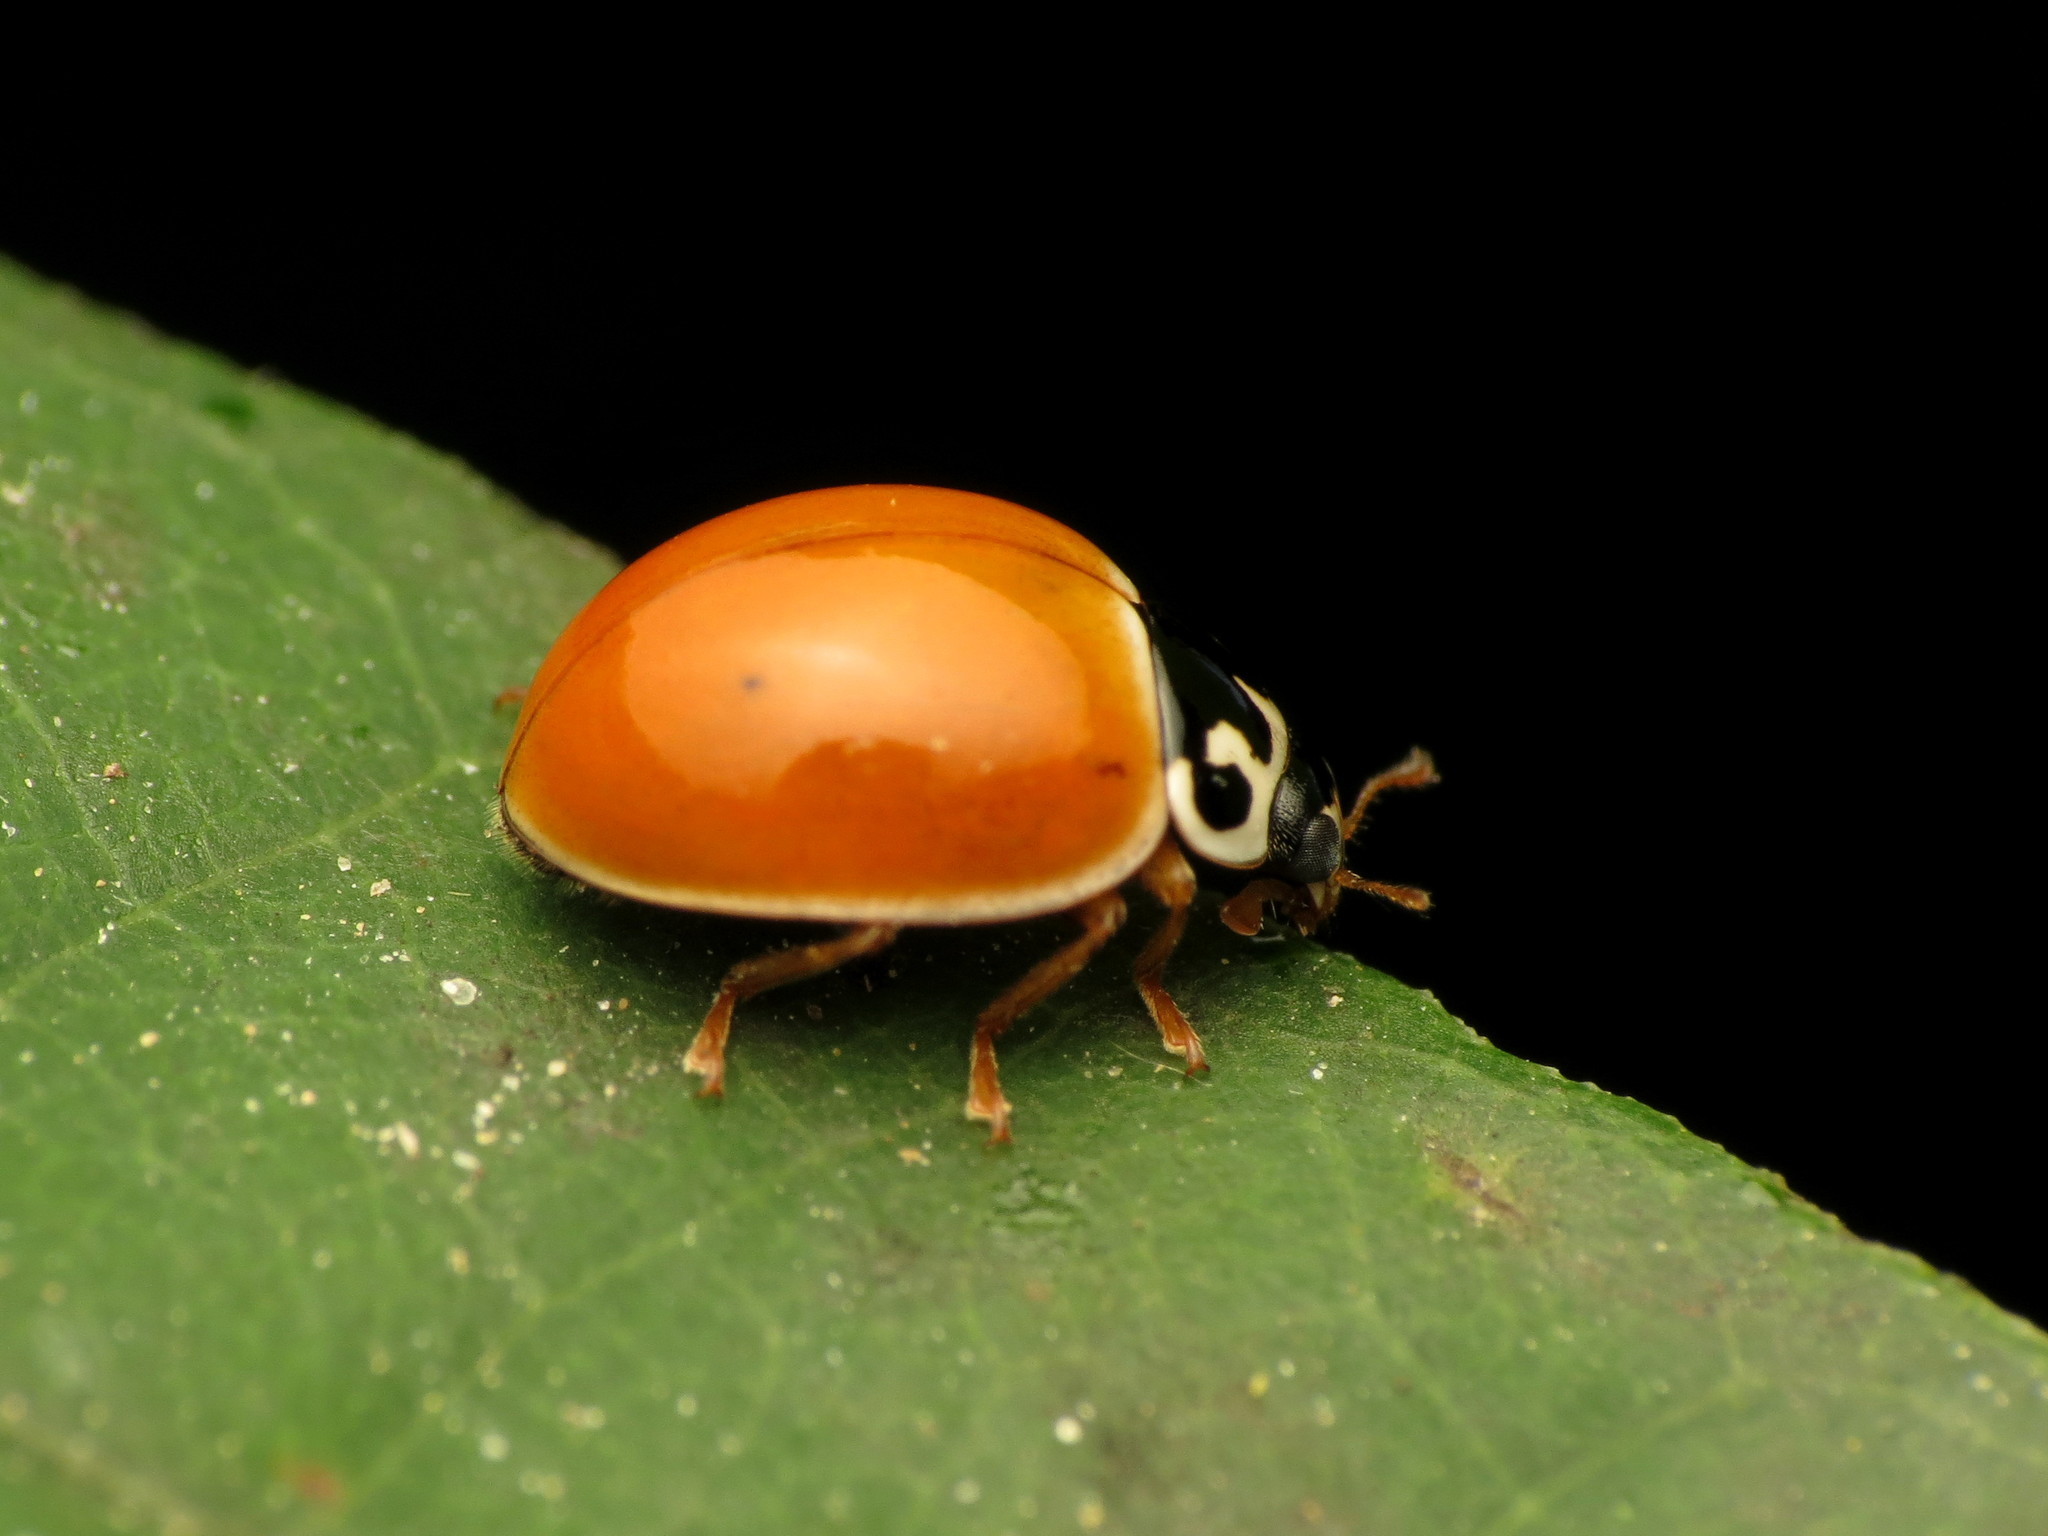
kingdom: Animalia
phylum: Arthropoda
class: Insecta
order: Coleoptera
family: Coccinellidae
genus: Cycloneda
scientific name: Cycloneda munda
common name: Polished lady beetle
